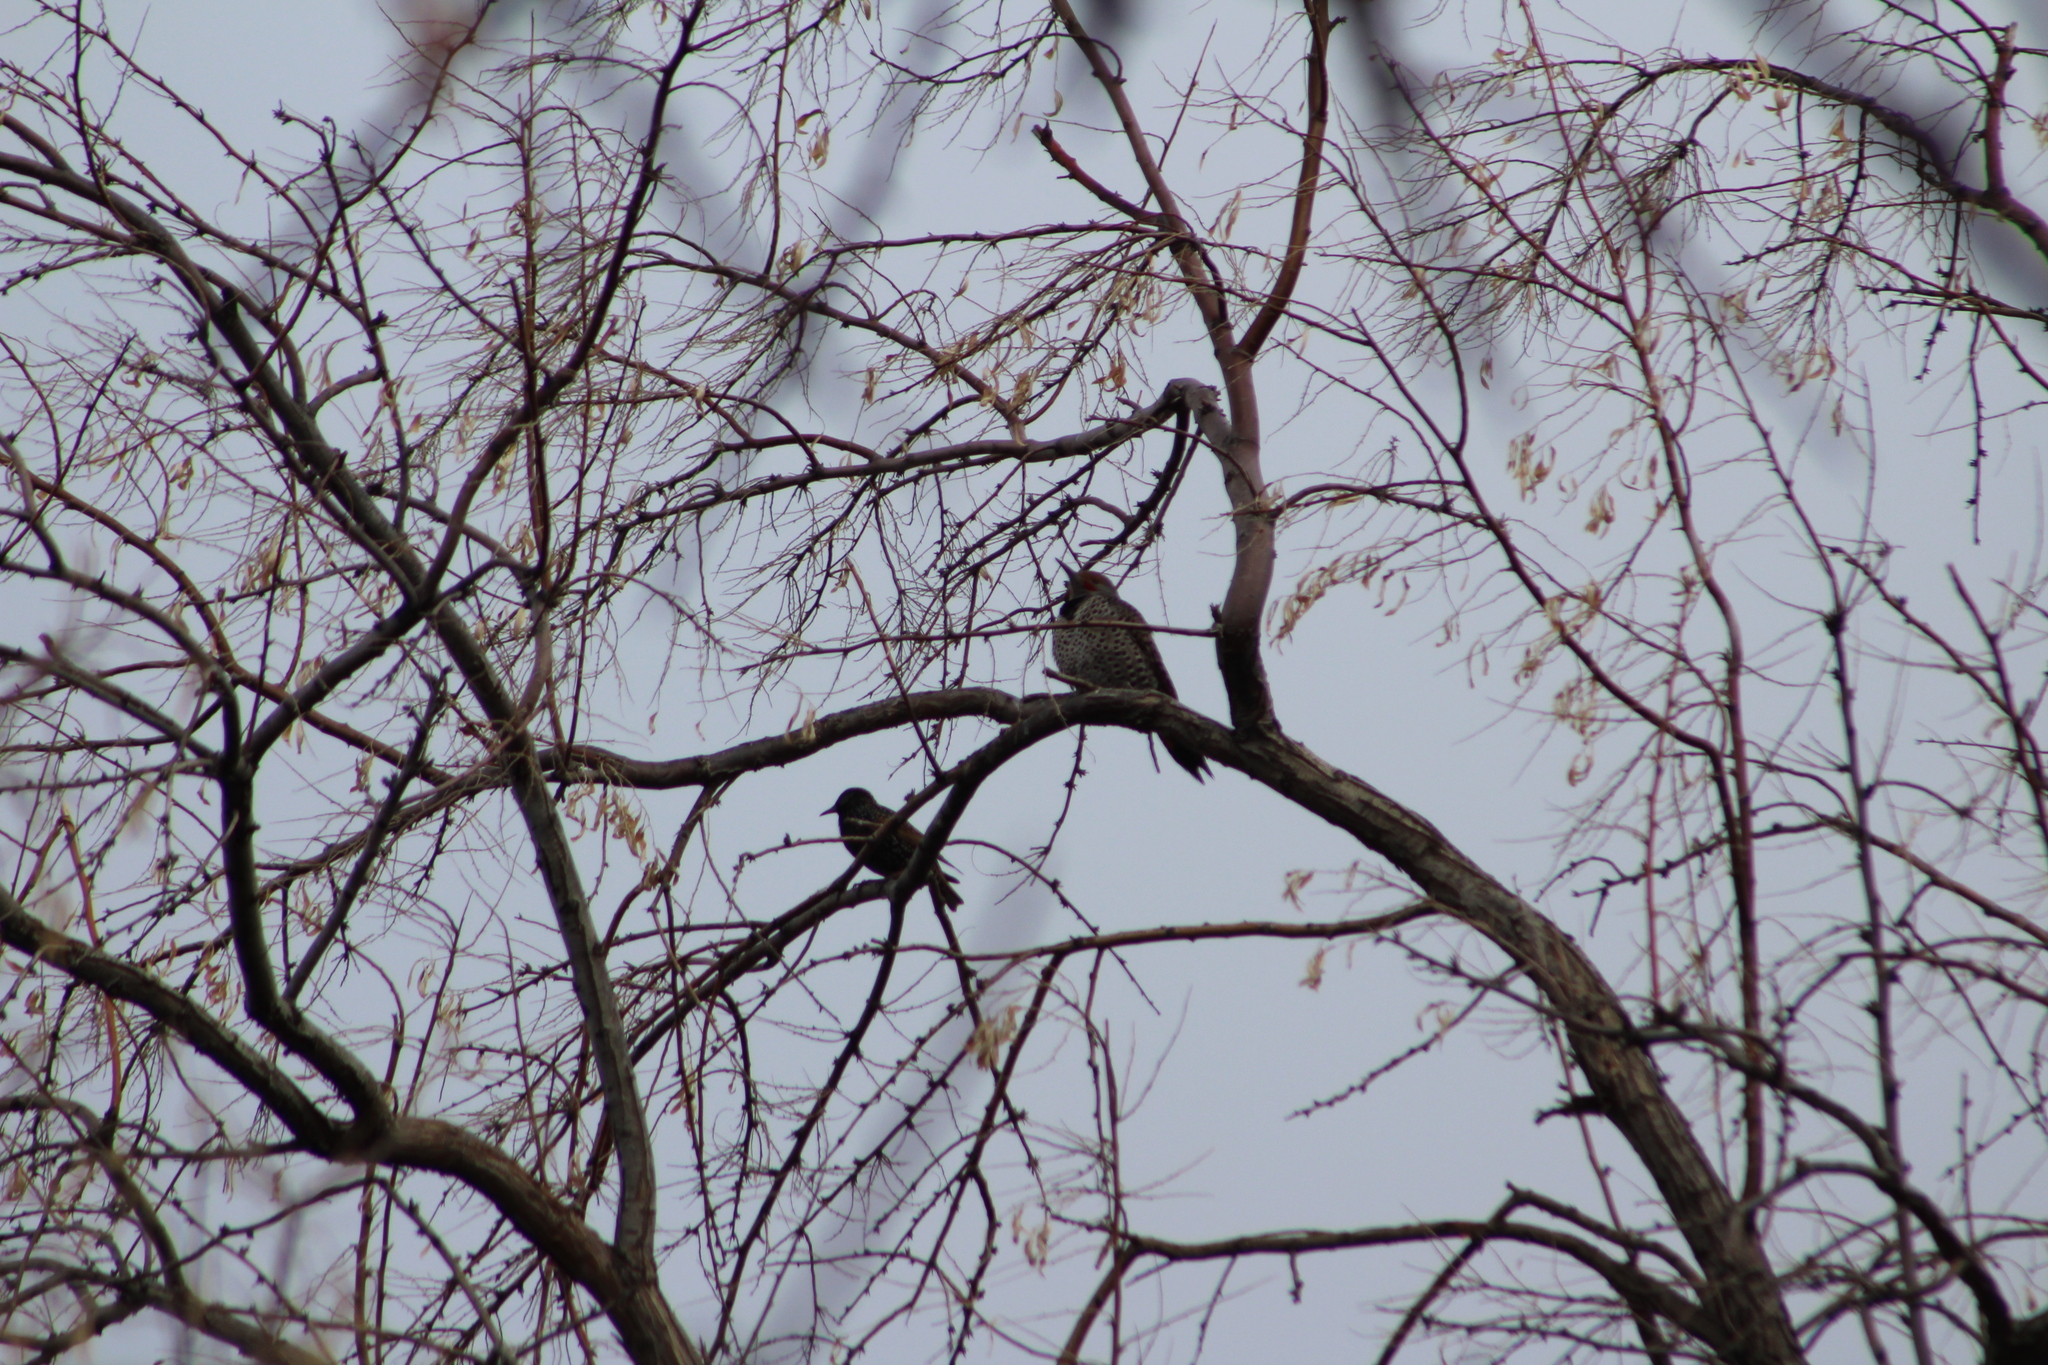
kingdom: Animalia
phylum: Chordata
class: Aves
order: Piciformes
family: Picidae
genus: Colaptes
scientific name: Colaptes auratus
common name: Northern flicker
